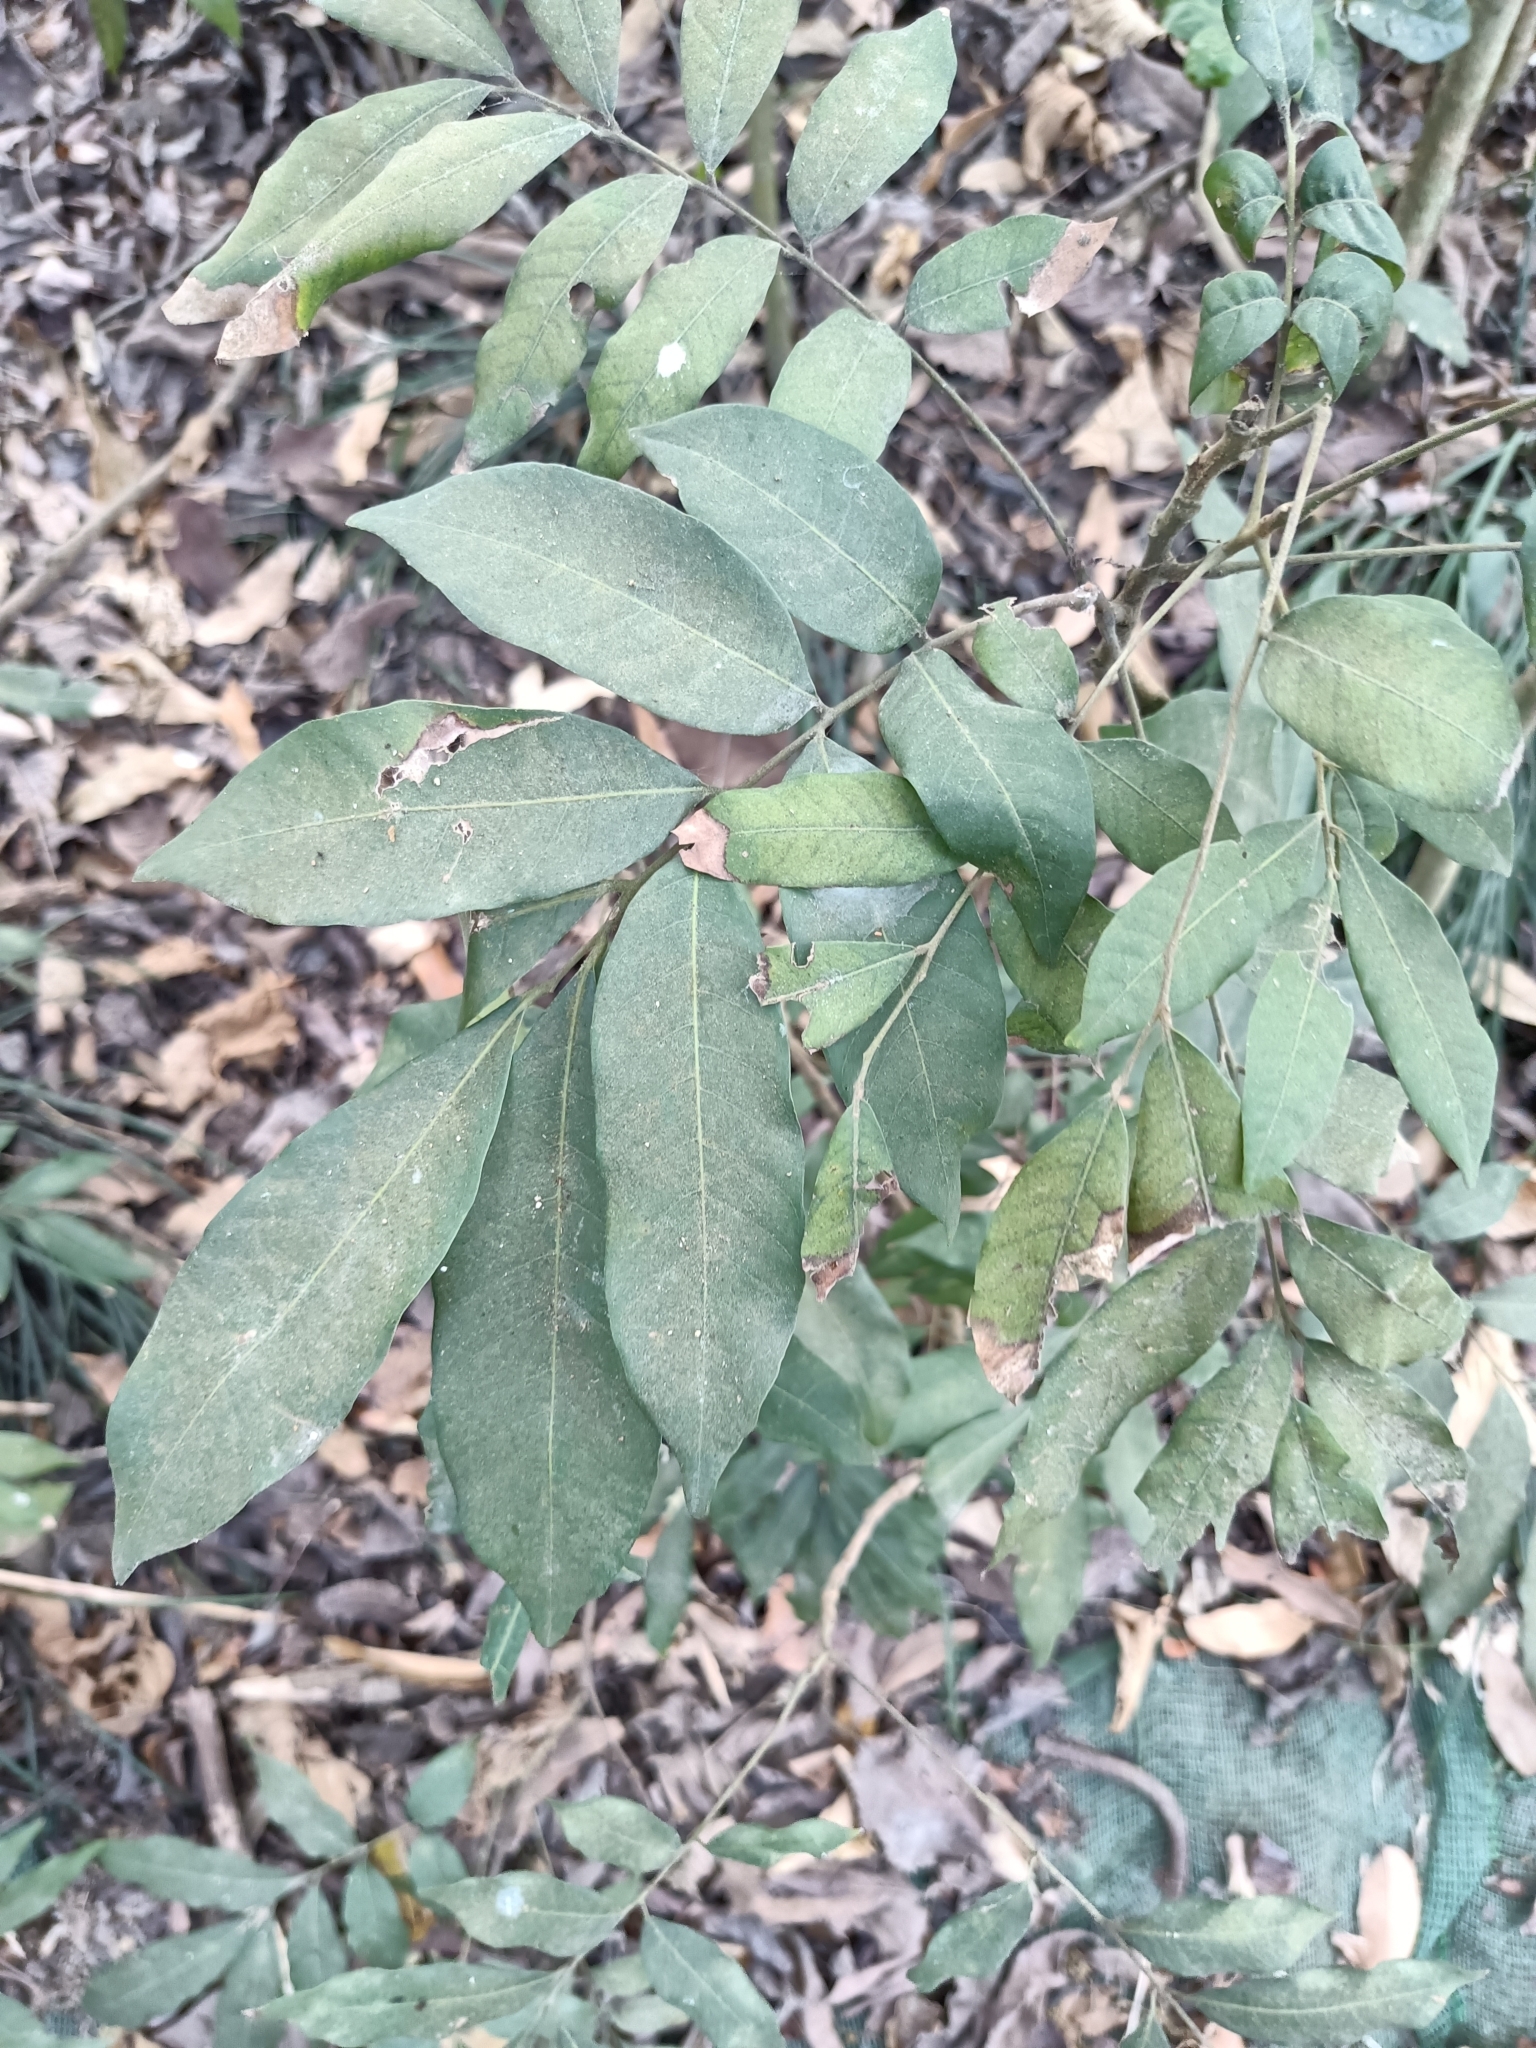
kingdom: Plantae
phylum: Tracheophyta
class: Magnoliopsida
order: Sapindales
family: Sapindaceae
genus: Dimocarpus
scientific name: Dimocarpus longan
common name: Longan
